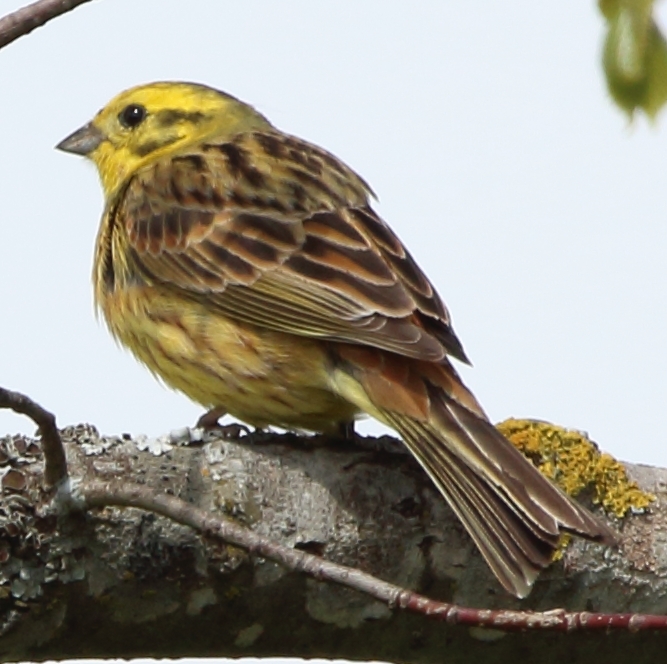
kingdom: Animalia
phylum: Chordata
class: Aves
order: Passeriformes
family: Emberizidae
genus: Emberiza
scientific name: Emberiza citrinella
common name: Yellowhammer
